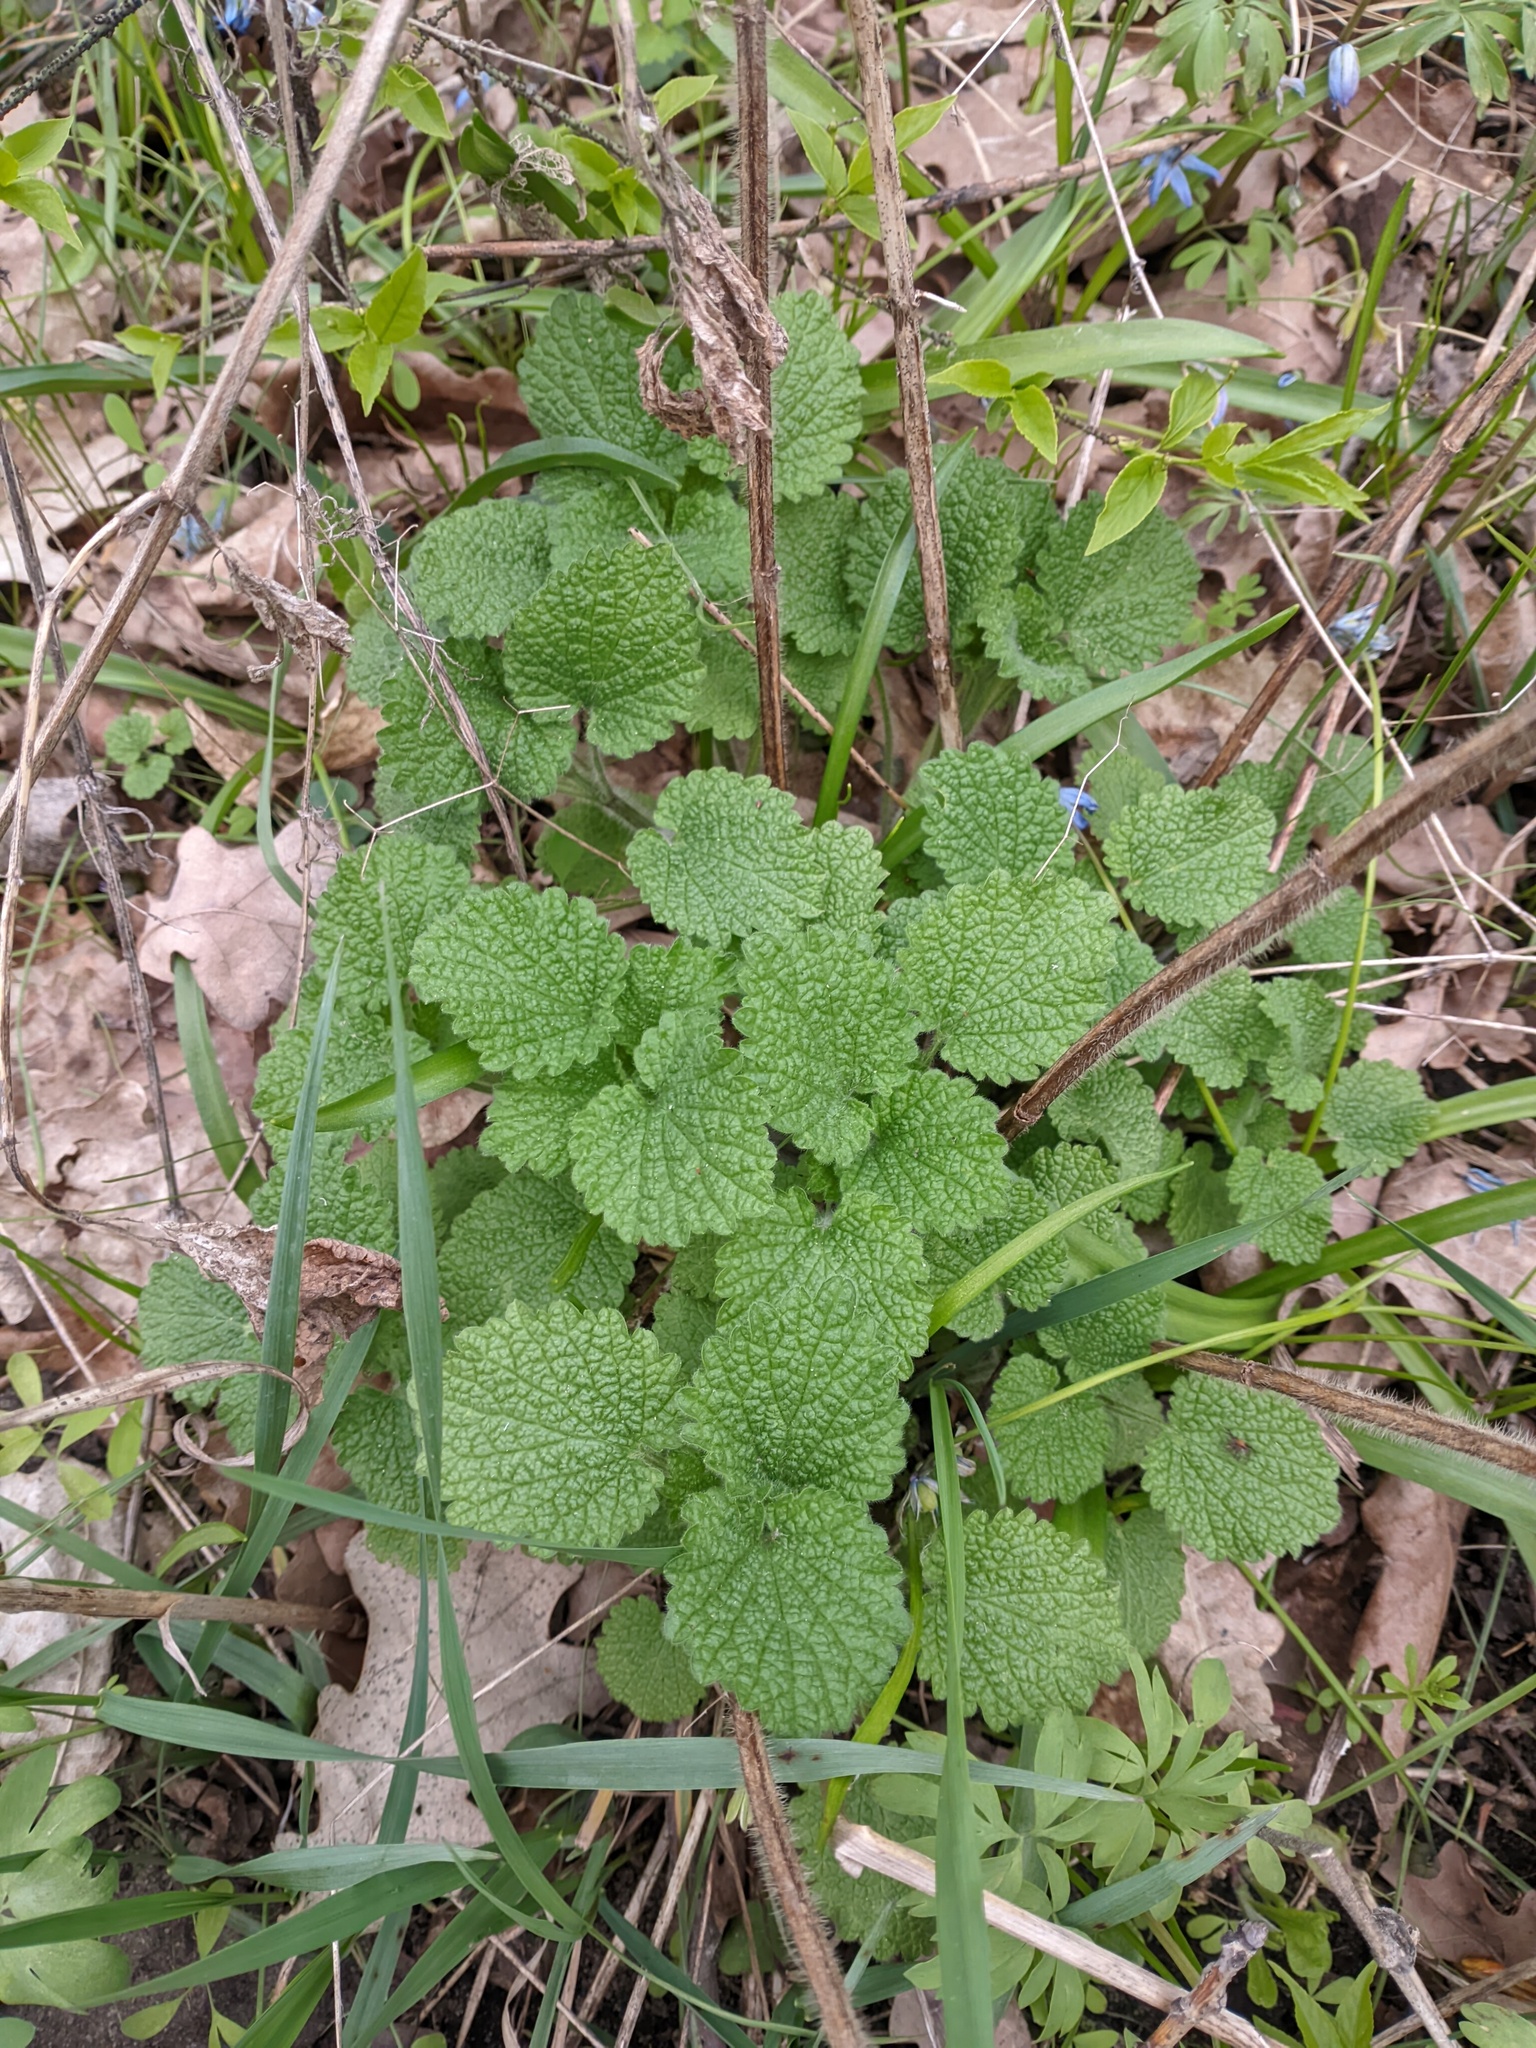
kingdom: Plantae
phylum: Tracheophyta
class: Magnoliopsida
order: Lamiales
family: Lamiaceae
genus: Ballota
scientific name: Ballota nigra
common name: Black horehound
